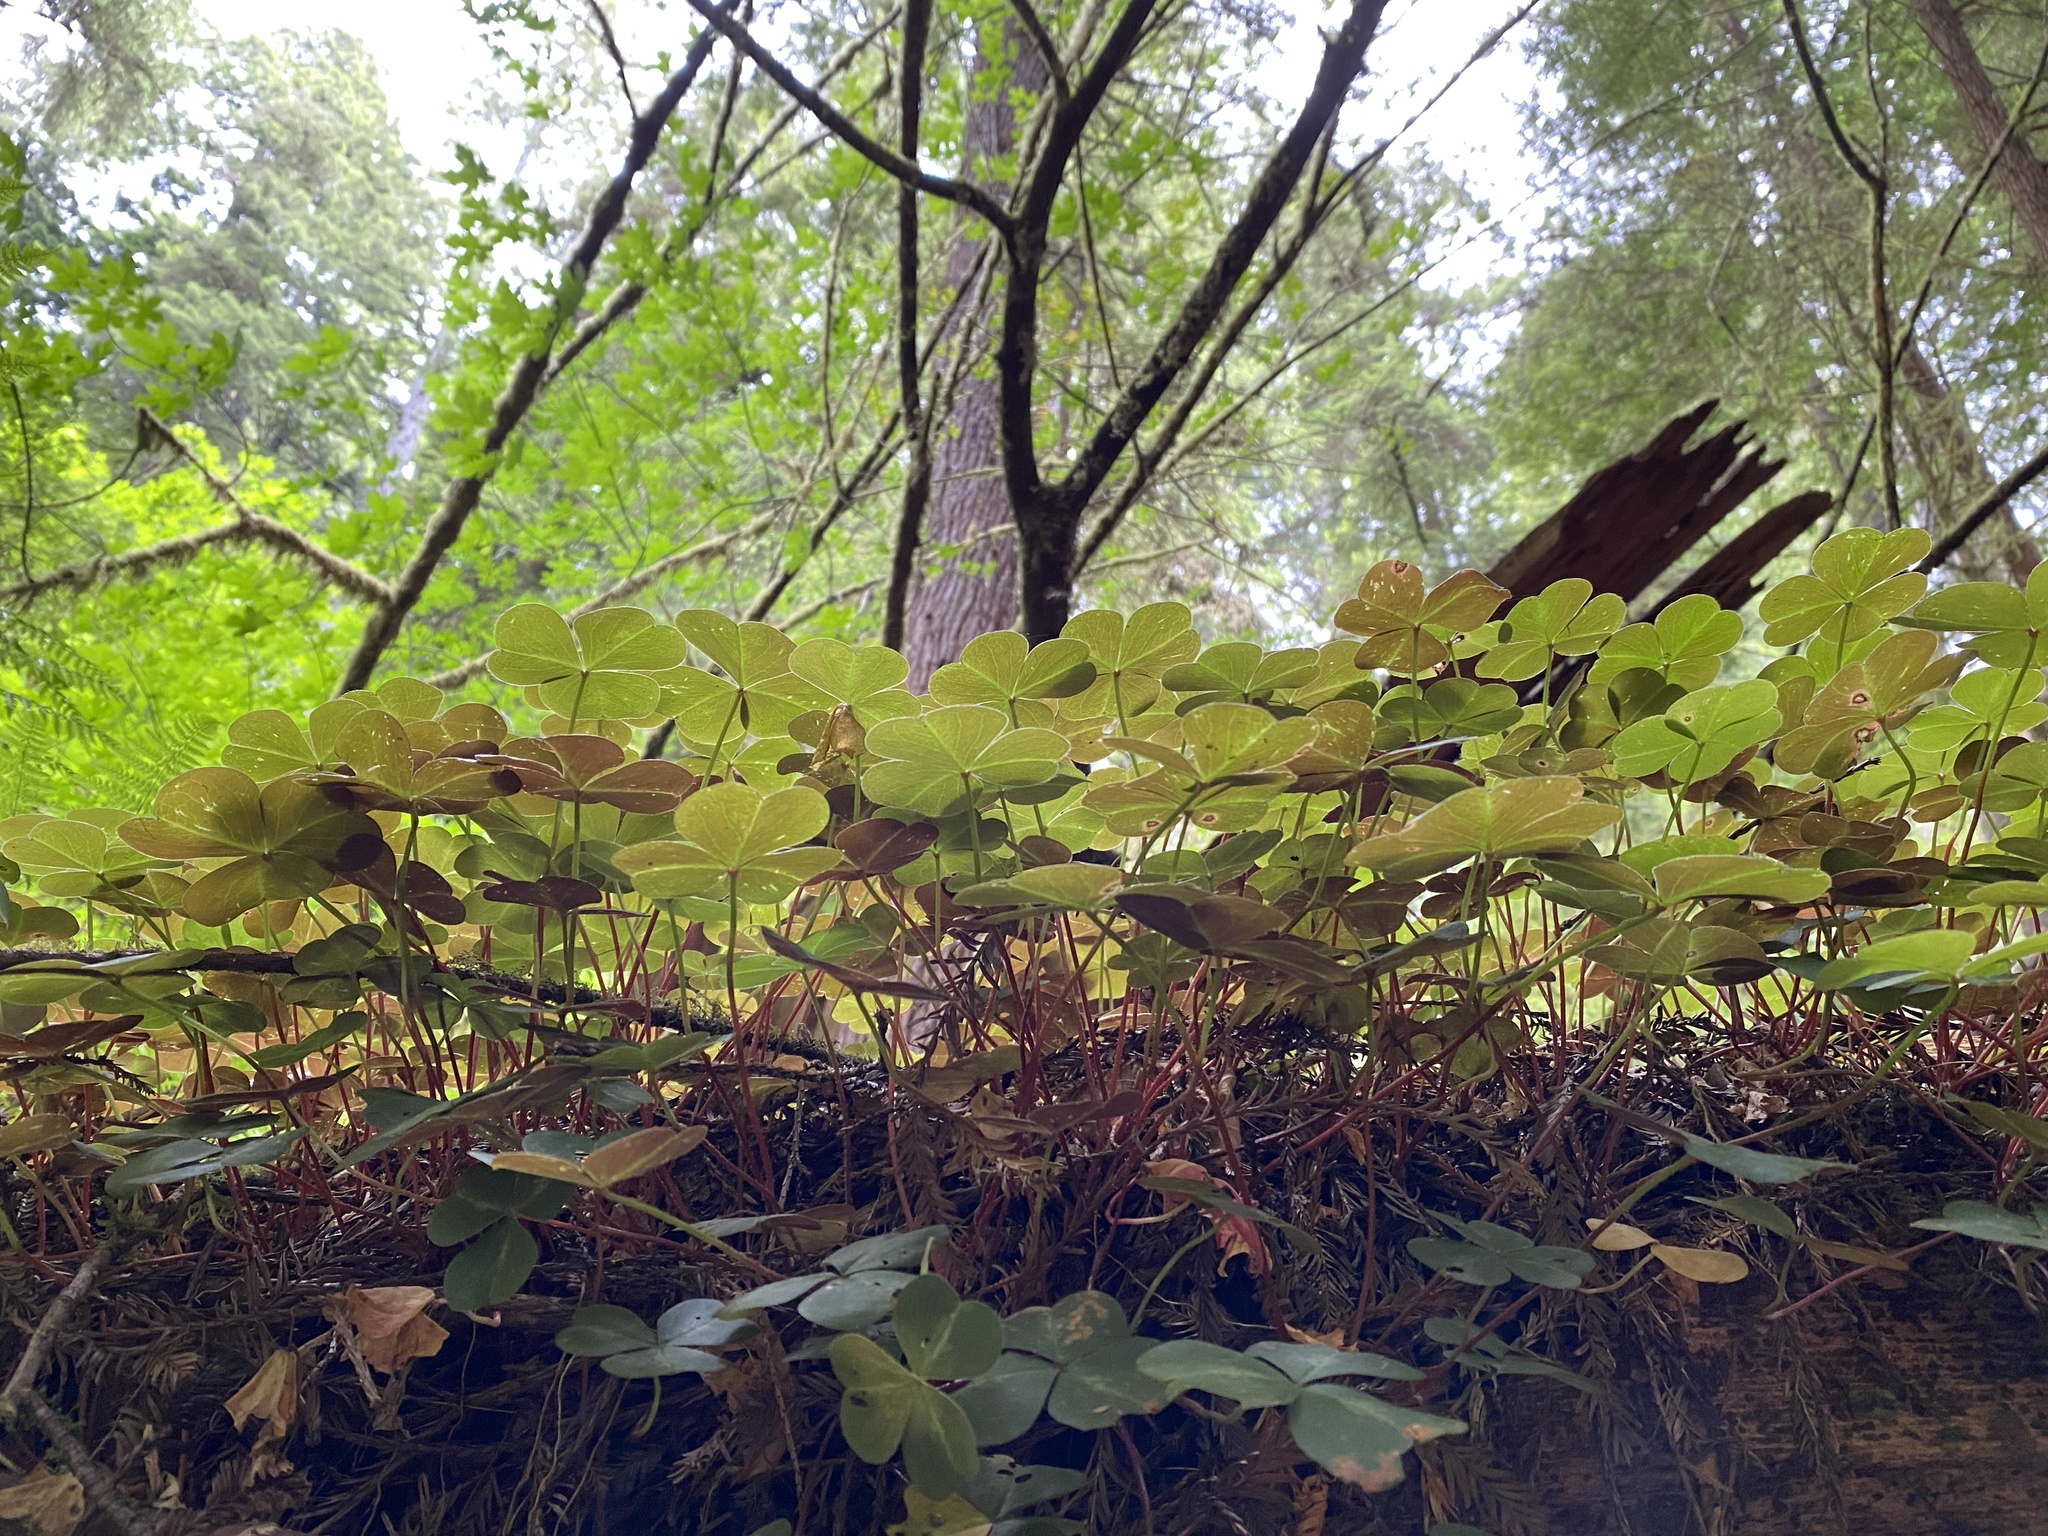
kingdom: Plantae
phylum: Tracheophyta
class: Magnoliopsida
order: Oxalidales
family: Oxalidaceae
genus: Oxalis
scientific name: Oxalis oregana
